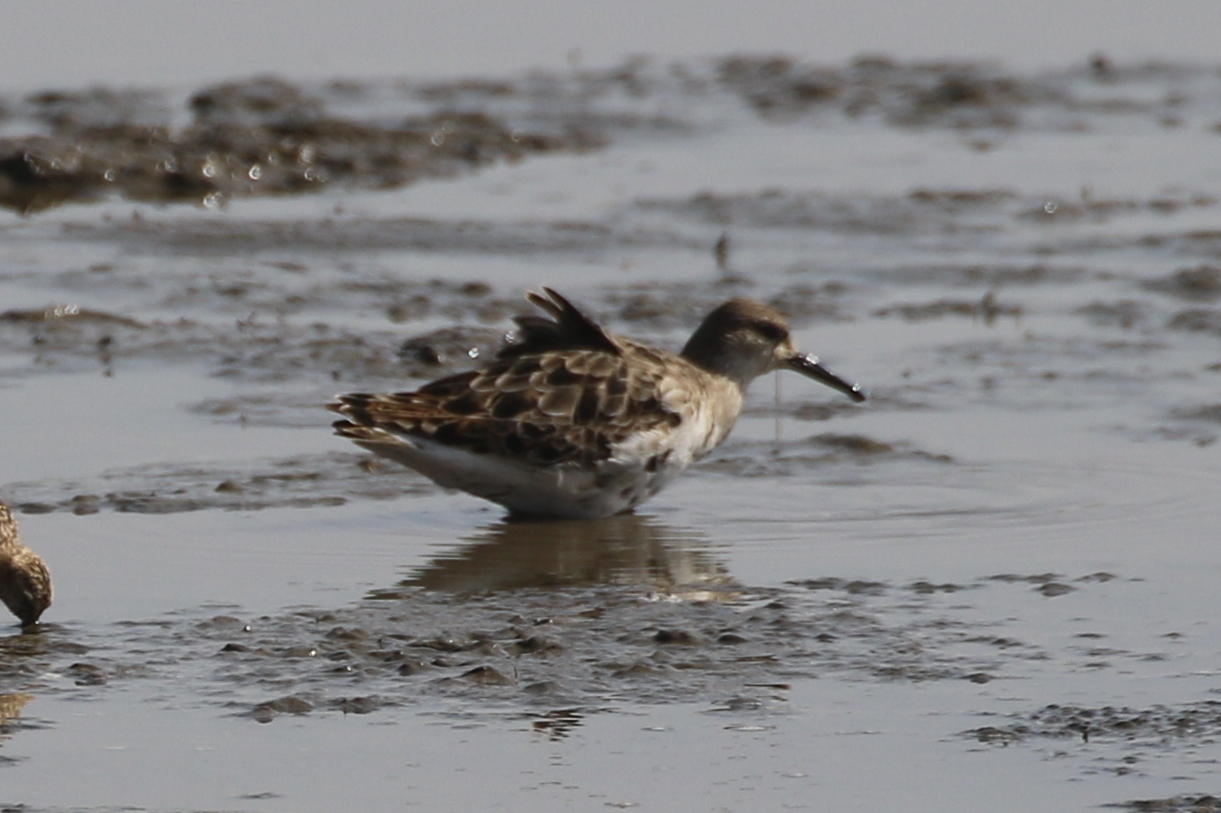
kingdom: Animalia
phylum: Chordata
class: Aves
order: Charadriiformes
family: Scolopacidae
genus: Calidris
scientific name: Calidris pugnax
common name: Ruff
